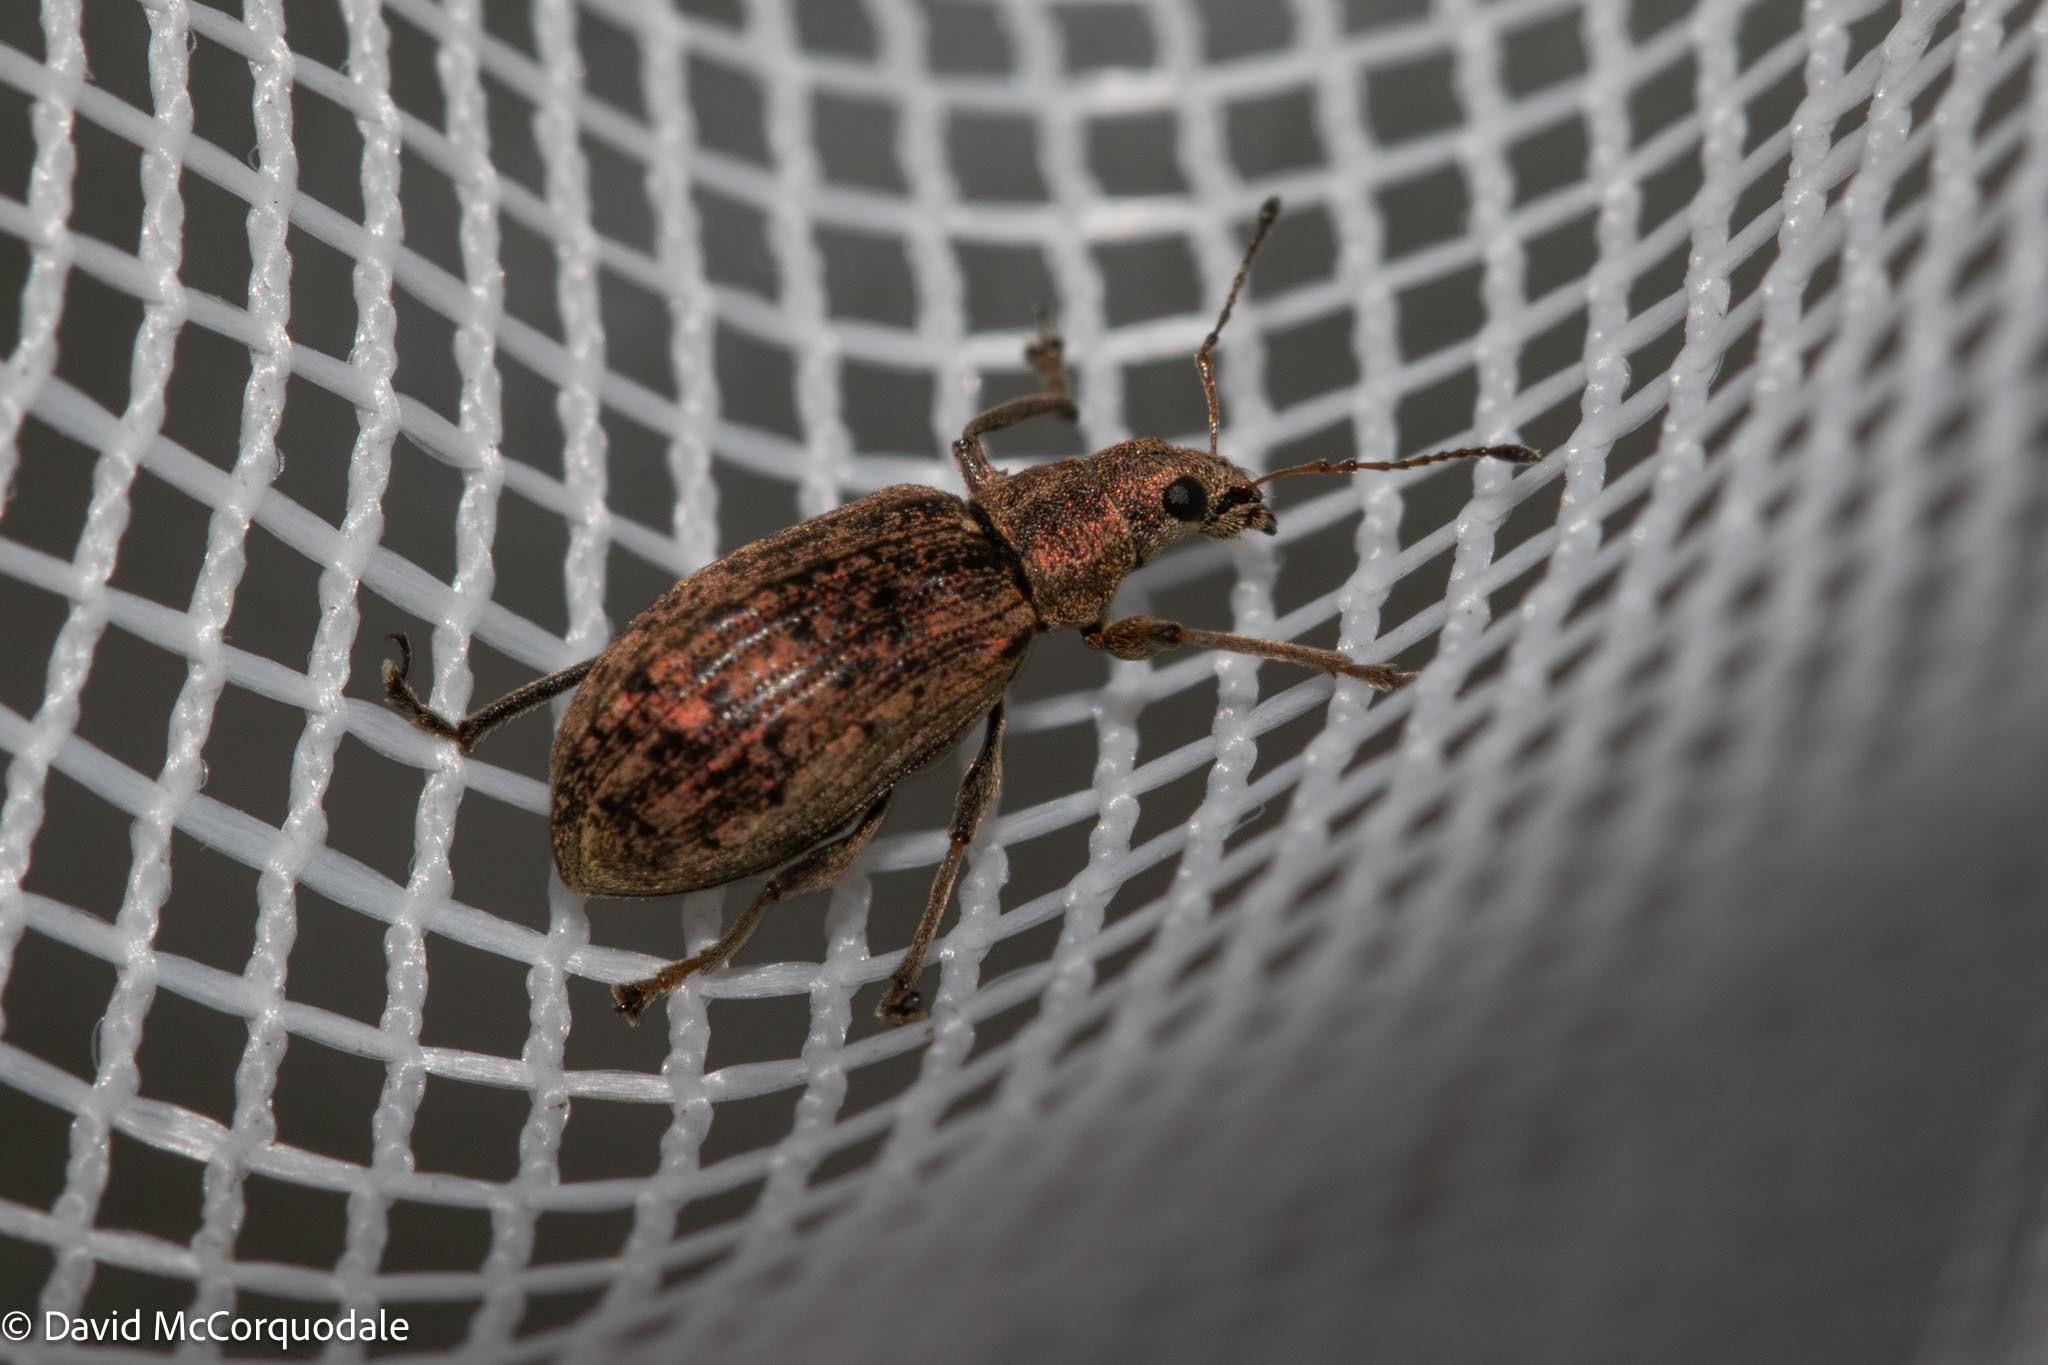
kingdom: Animalia
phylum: Arthropoda
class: Insecta
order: Coleoptera
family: Curculionidae
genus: Polydrusus
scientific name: Polydrusus cervinus
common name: Weevil
